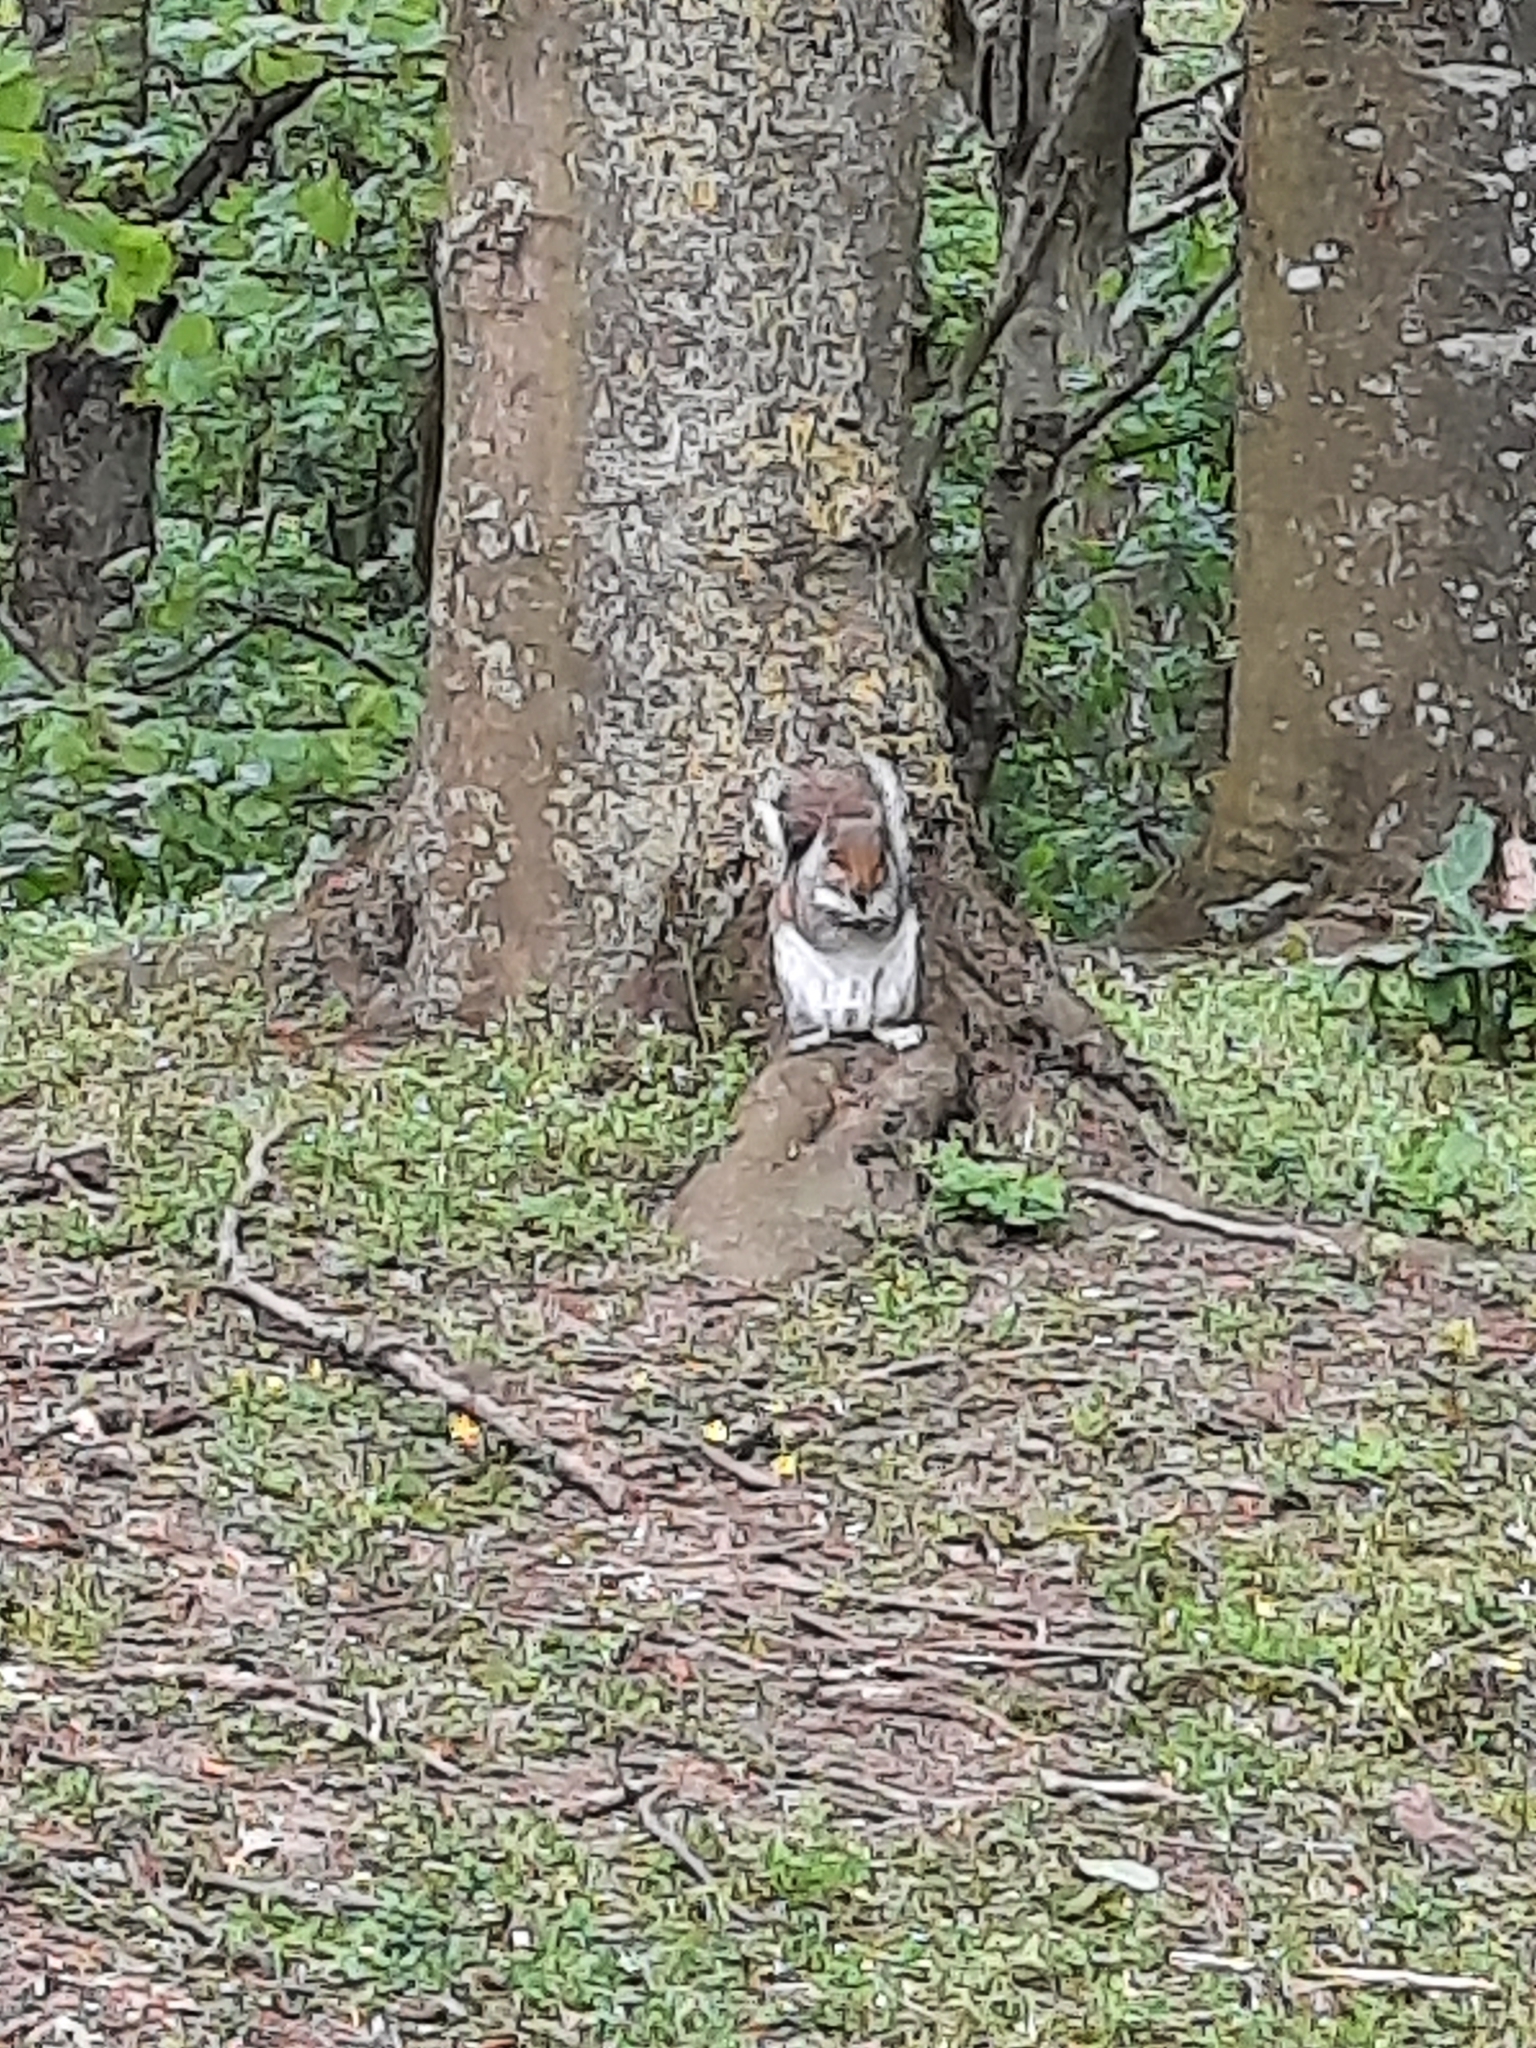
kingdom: Animalia
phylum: Chordata
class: Mammalia
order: Rodentia
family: Sciuridae
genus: Sciurus
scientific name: Sciurus carolinensis
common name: Eastern gray squirrel
